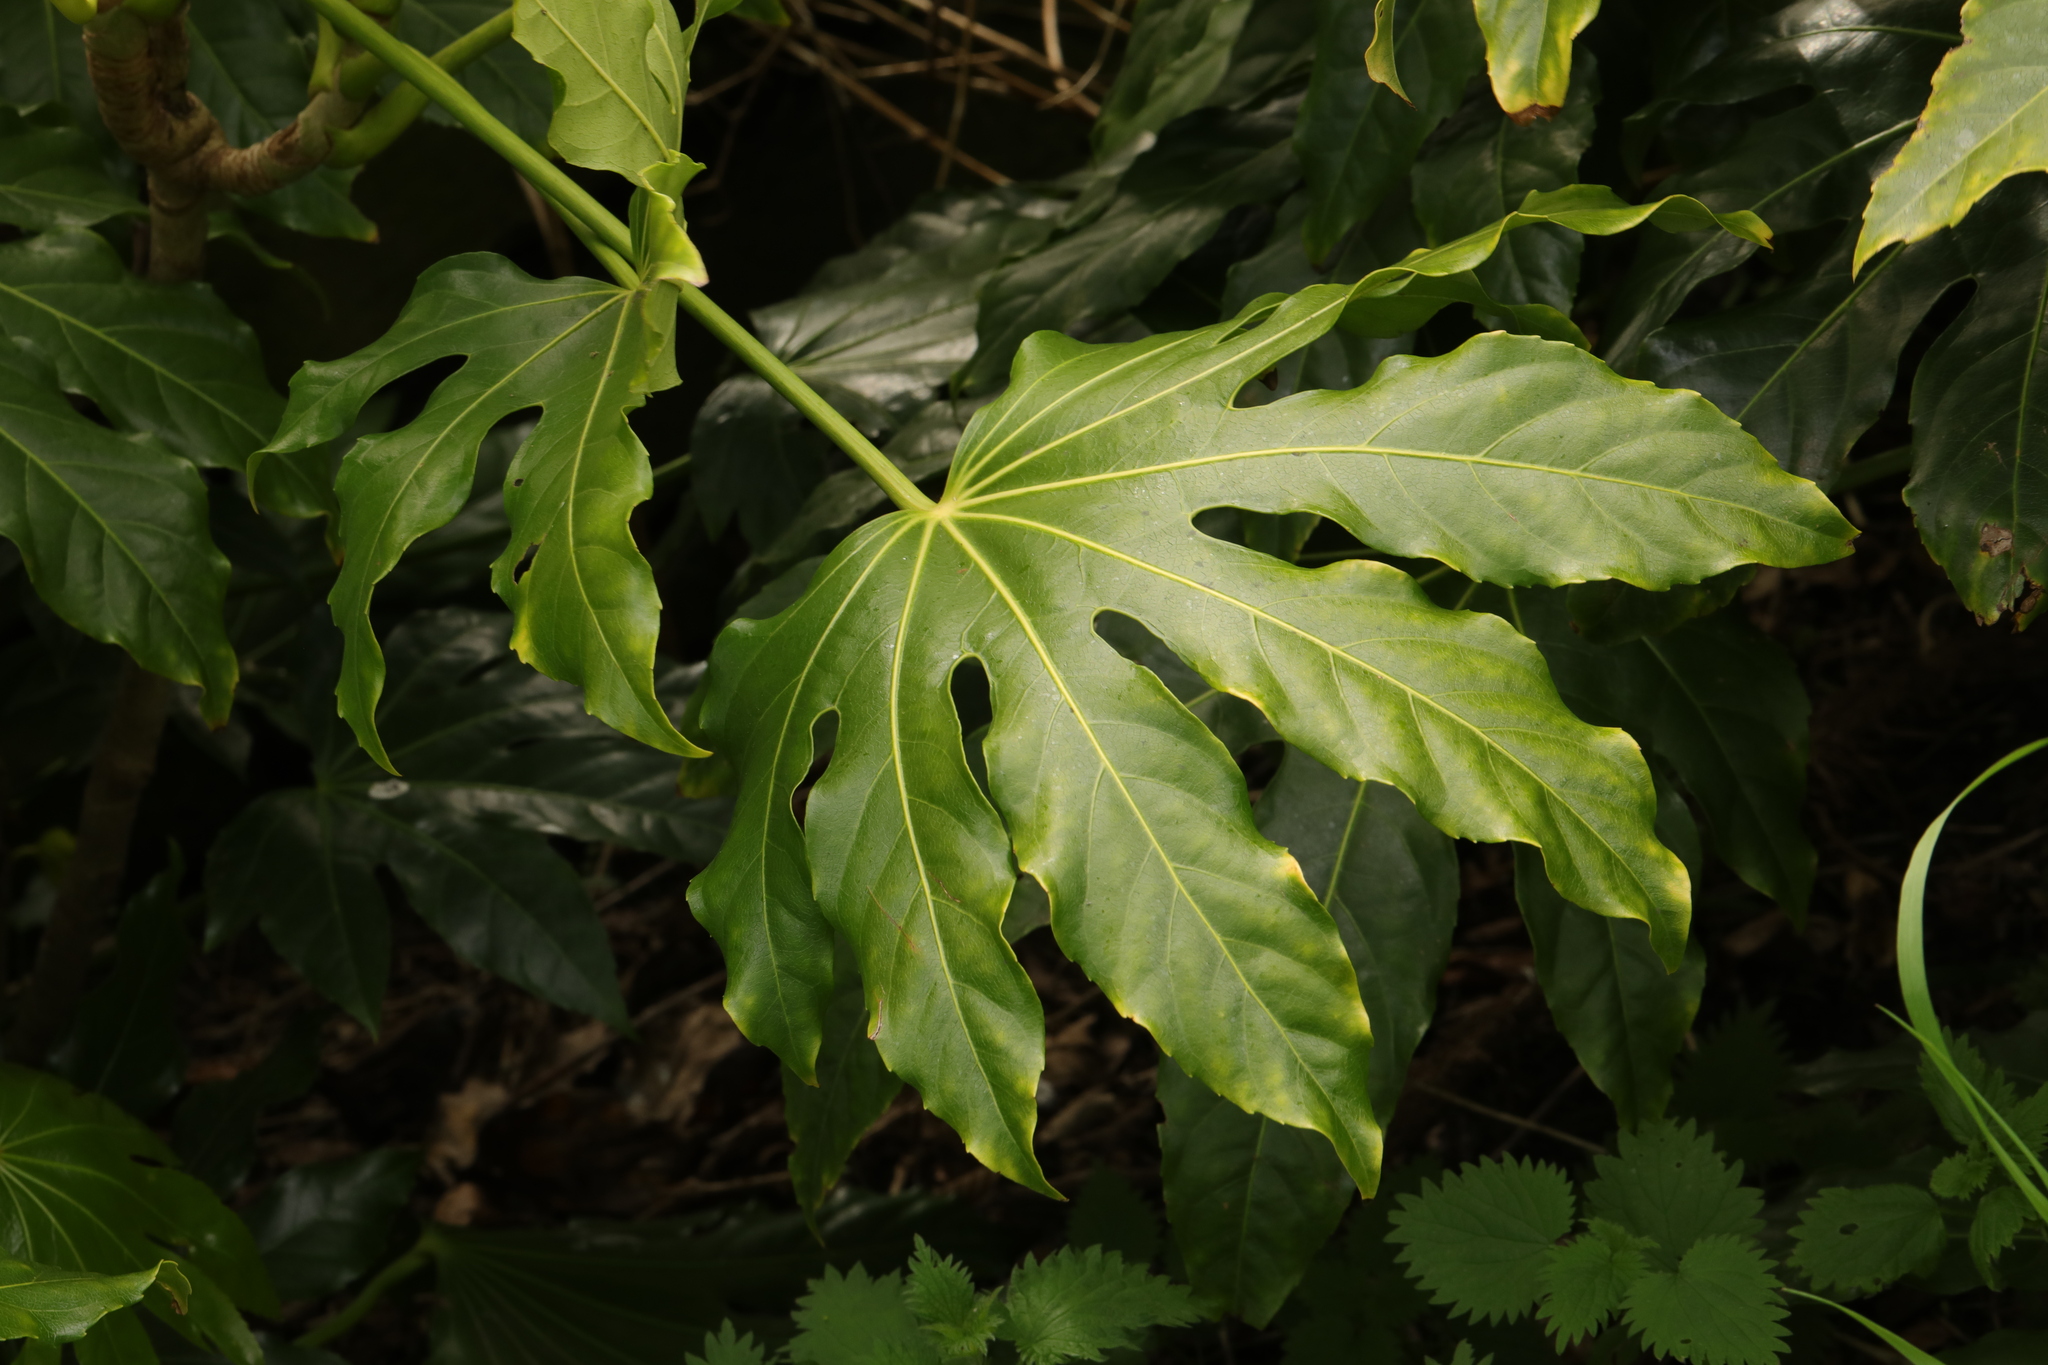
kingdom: Plantae
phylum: Tracheophyta
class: Magnoliopsida
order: Apiales
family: Araliaceae
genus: Fatsia
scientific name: Fatsia japonica
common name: Fatsia
